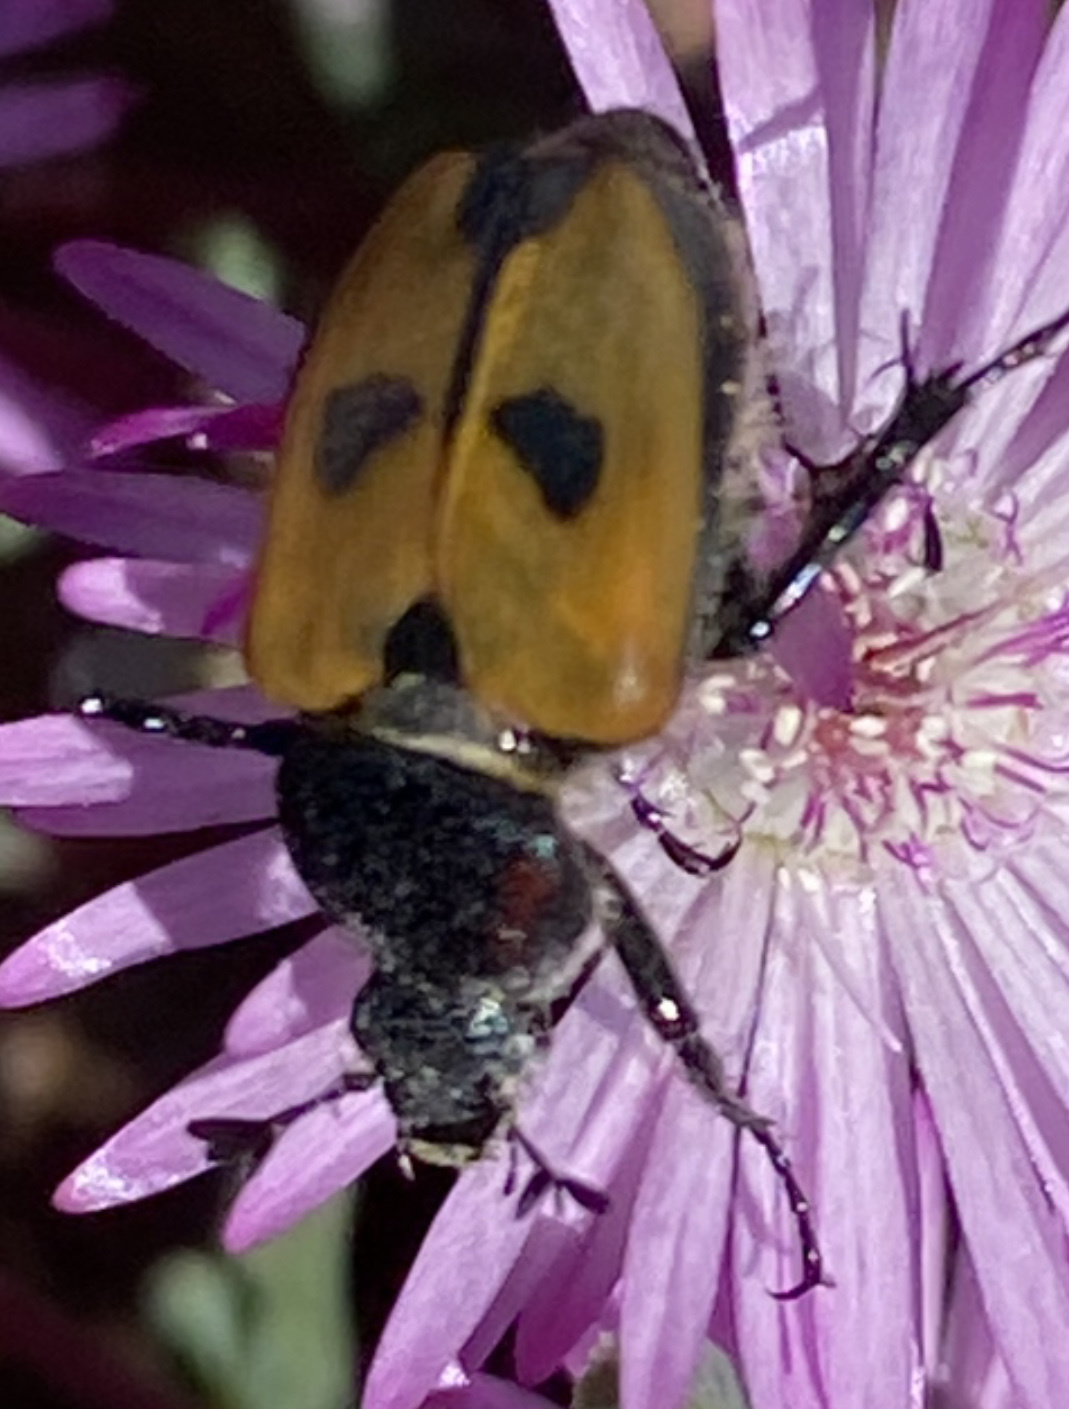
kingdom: Animalia
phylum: Arthropoda
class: Insecta
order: Coleoptera
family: Scarabaeidae
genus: Campulipus
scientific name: Campulipus limbatus
